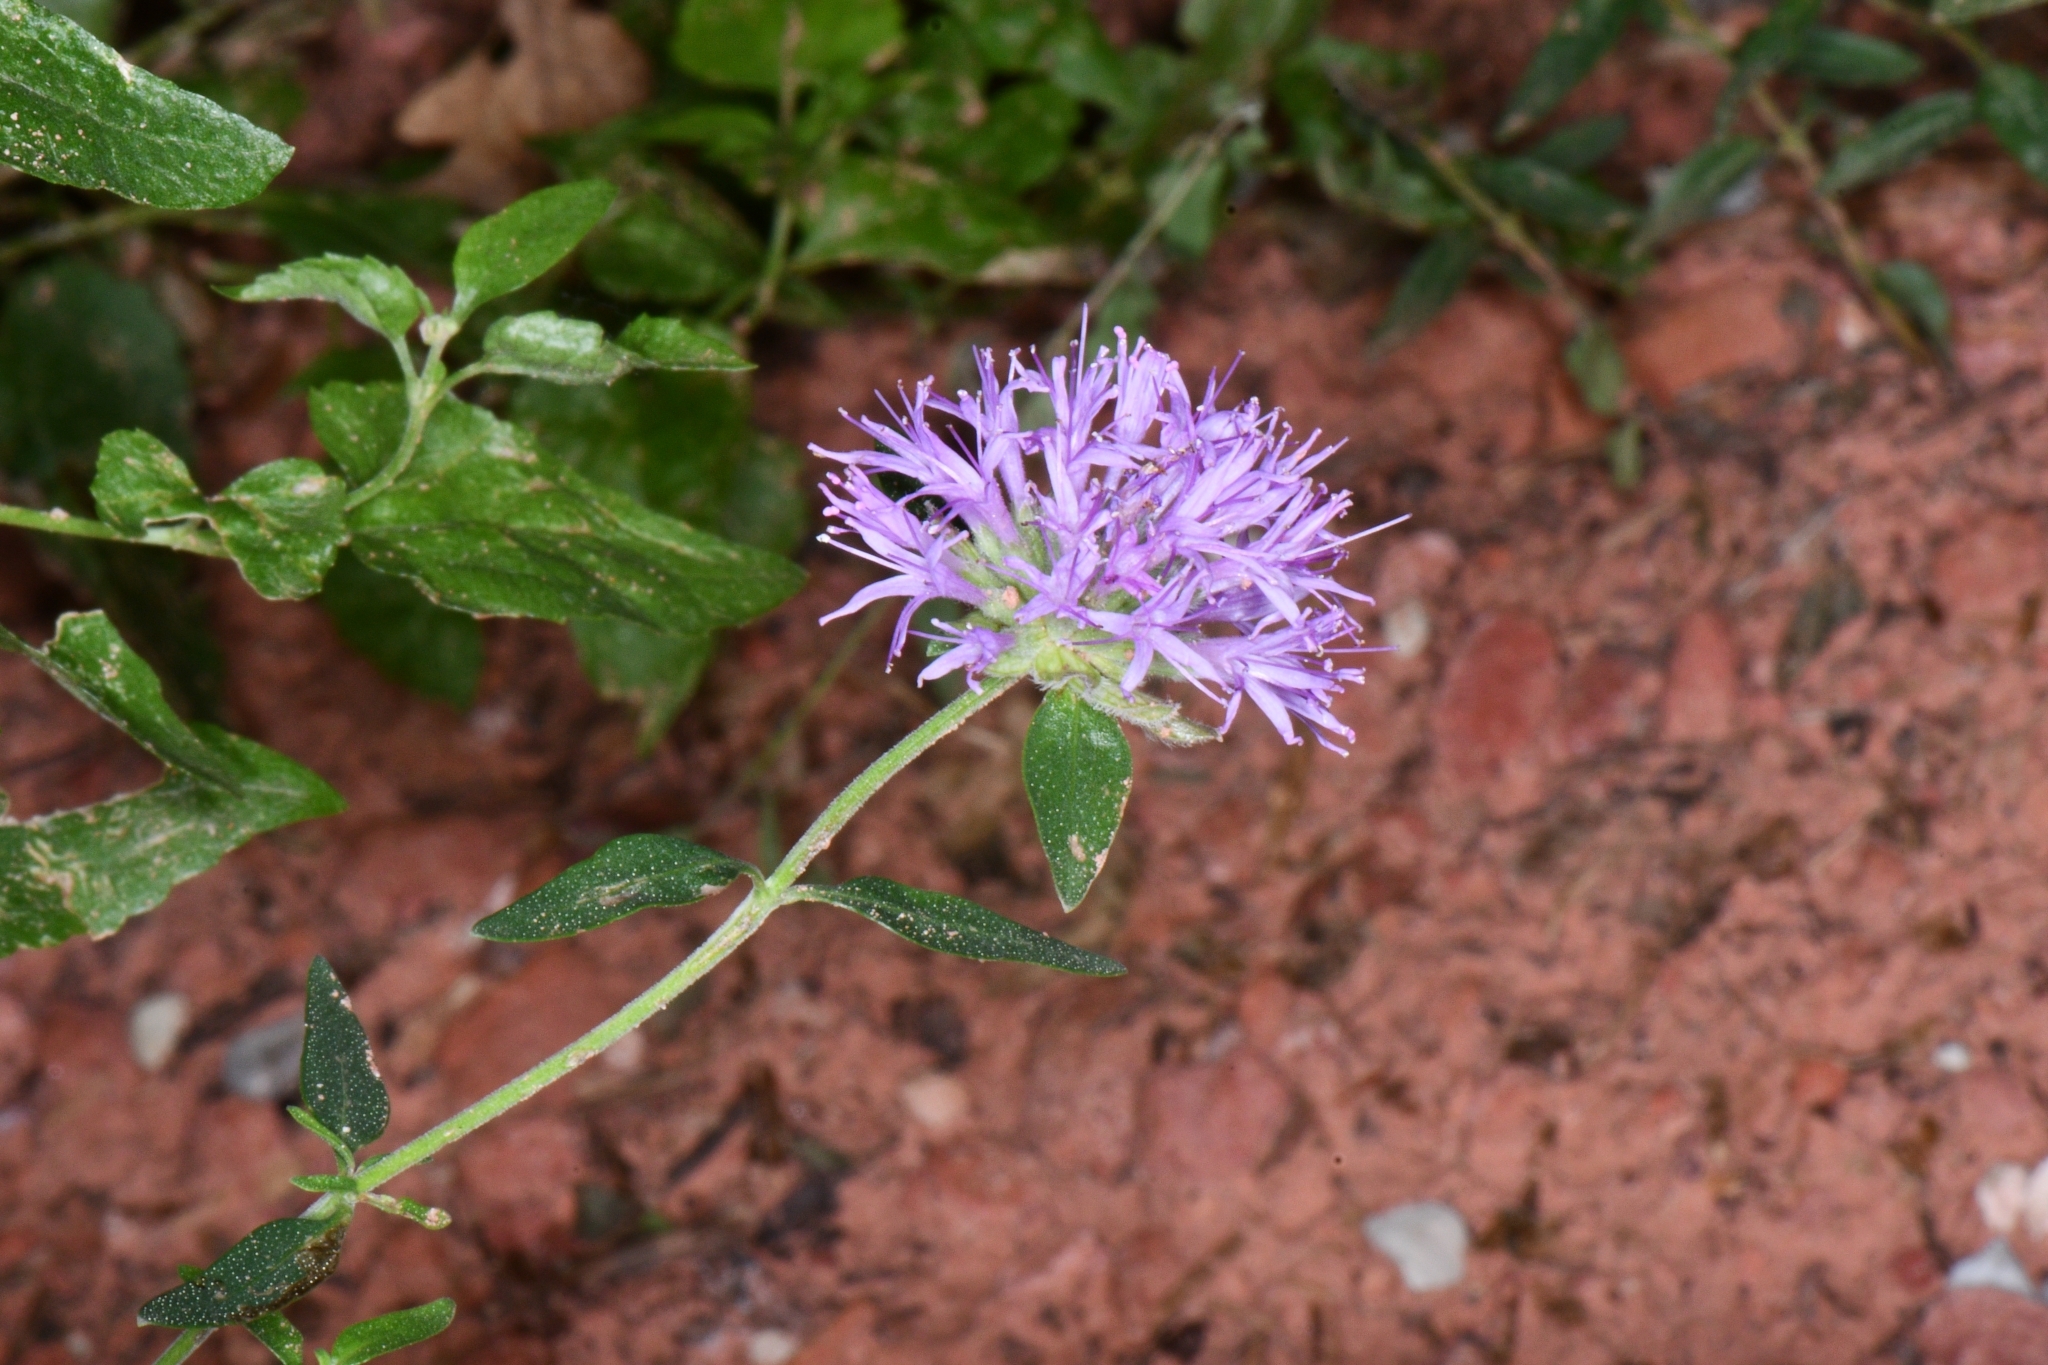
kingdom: Plantae
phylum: Tracheophyta
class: Magnoliopsida
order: Lamiales
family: Lamiaceae
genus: Monardella
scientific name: Monardella odoratissima
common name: Pacific monardella
